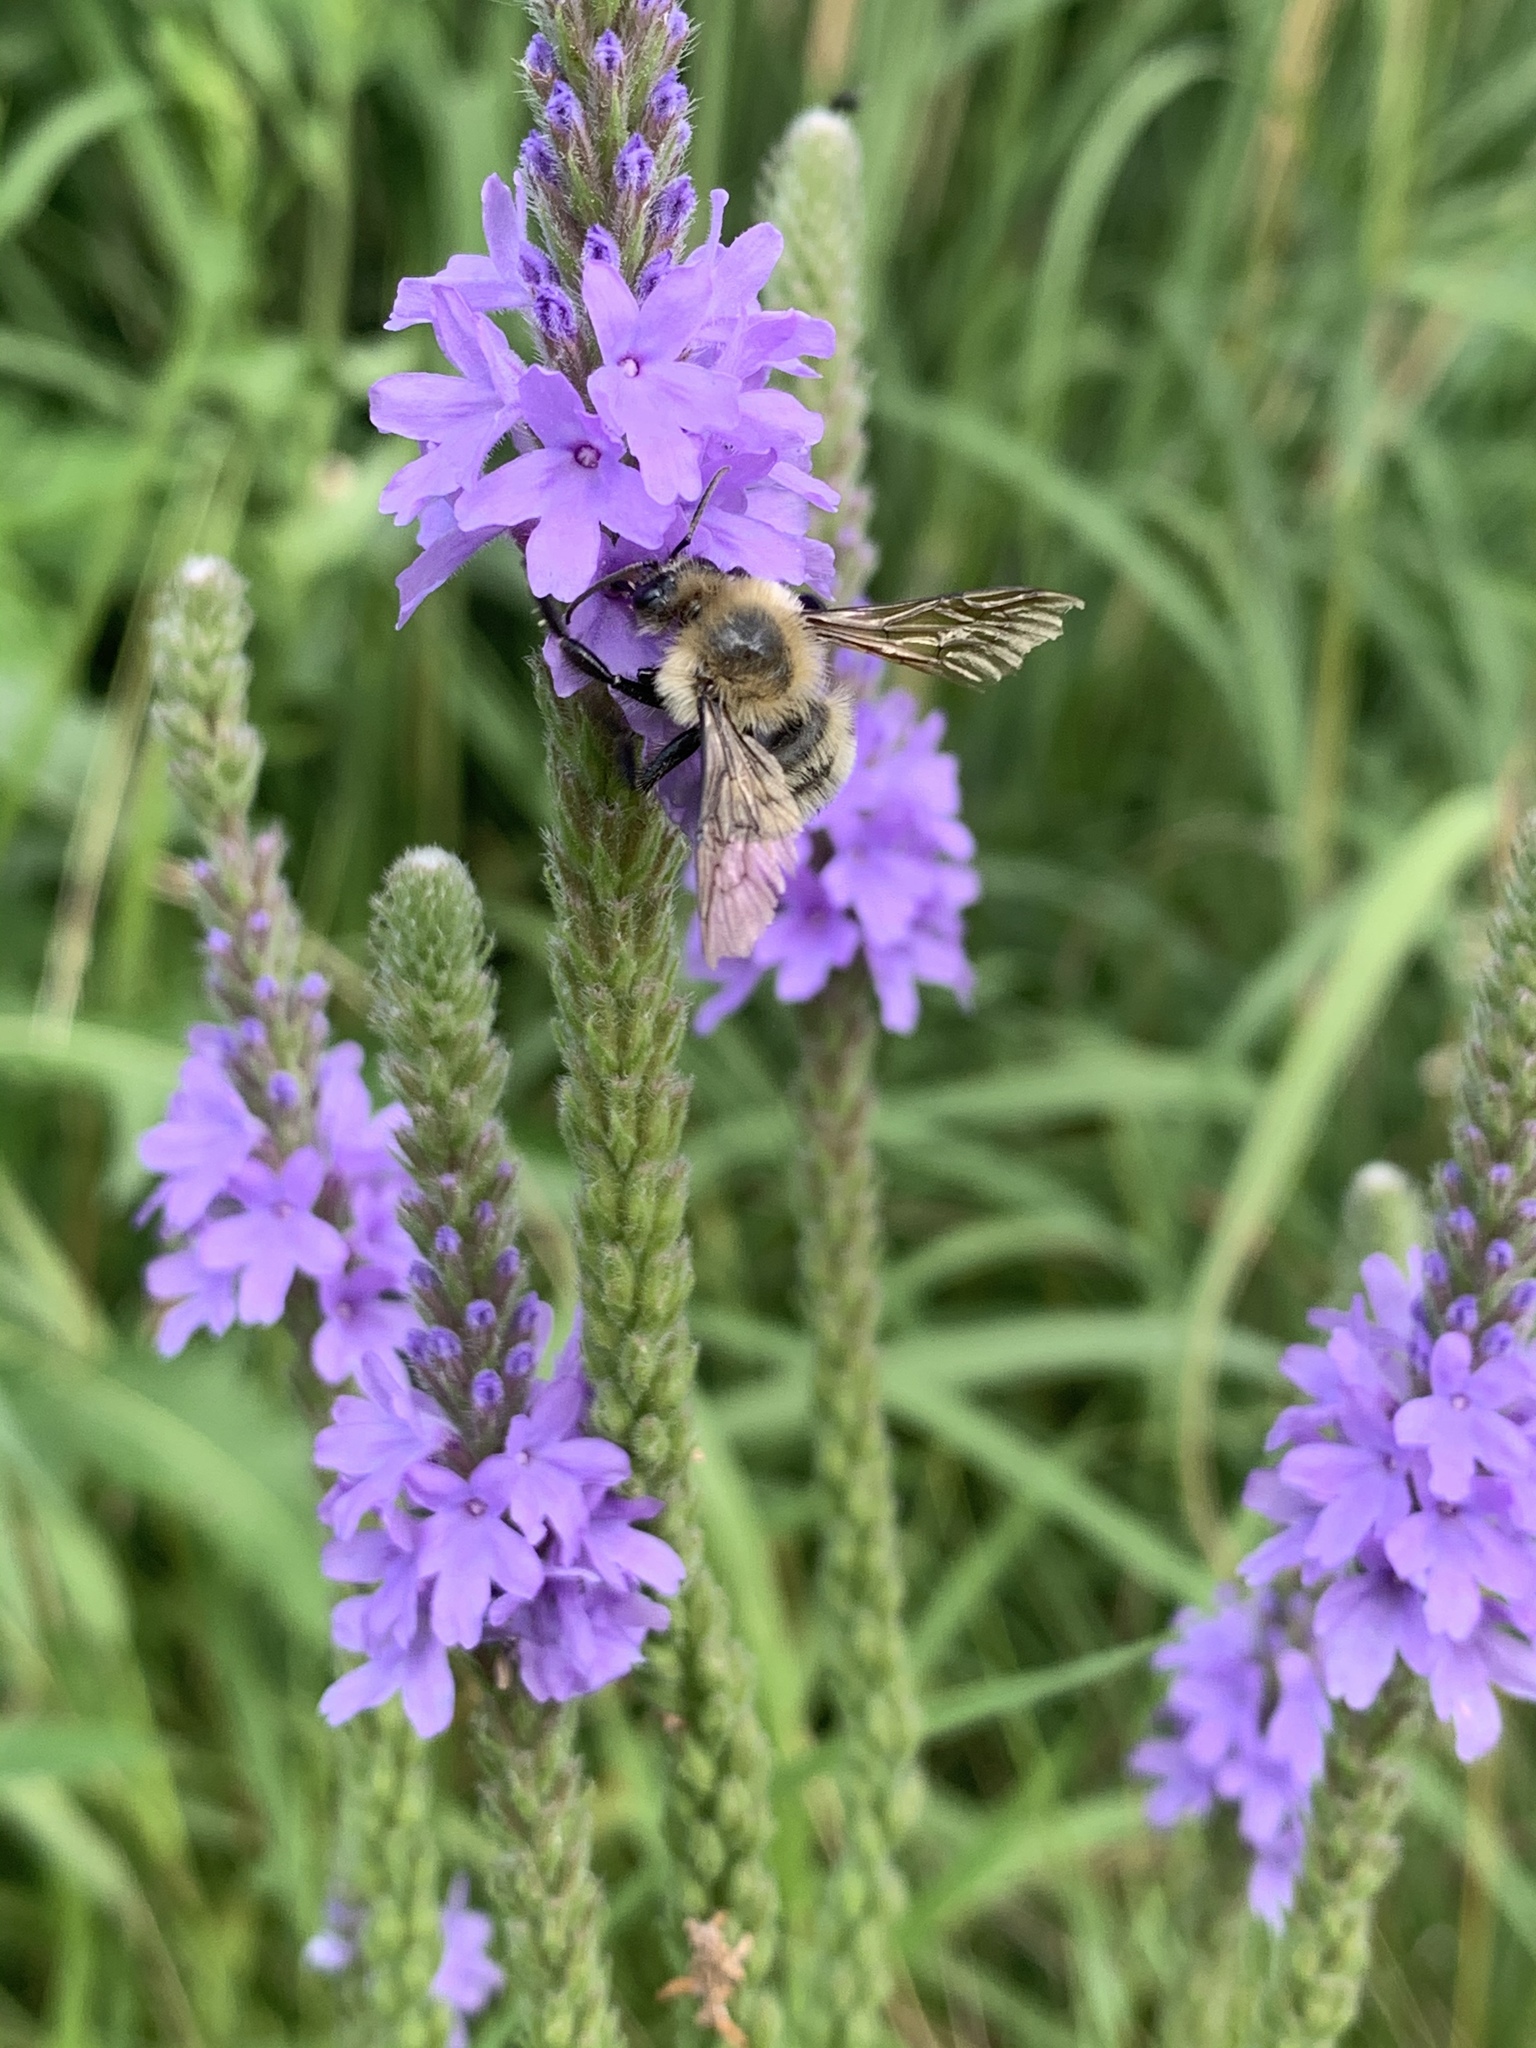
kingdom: Plantae
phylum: Tracheophyta
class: Magnoliopsida
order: Lamiales
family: Verbenaceae
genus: Verbena
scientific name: Verbena stricta
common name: Hoary vervain
